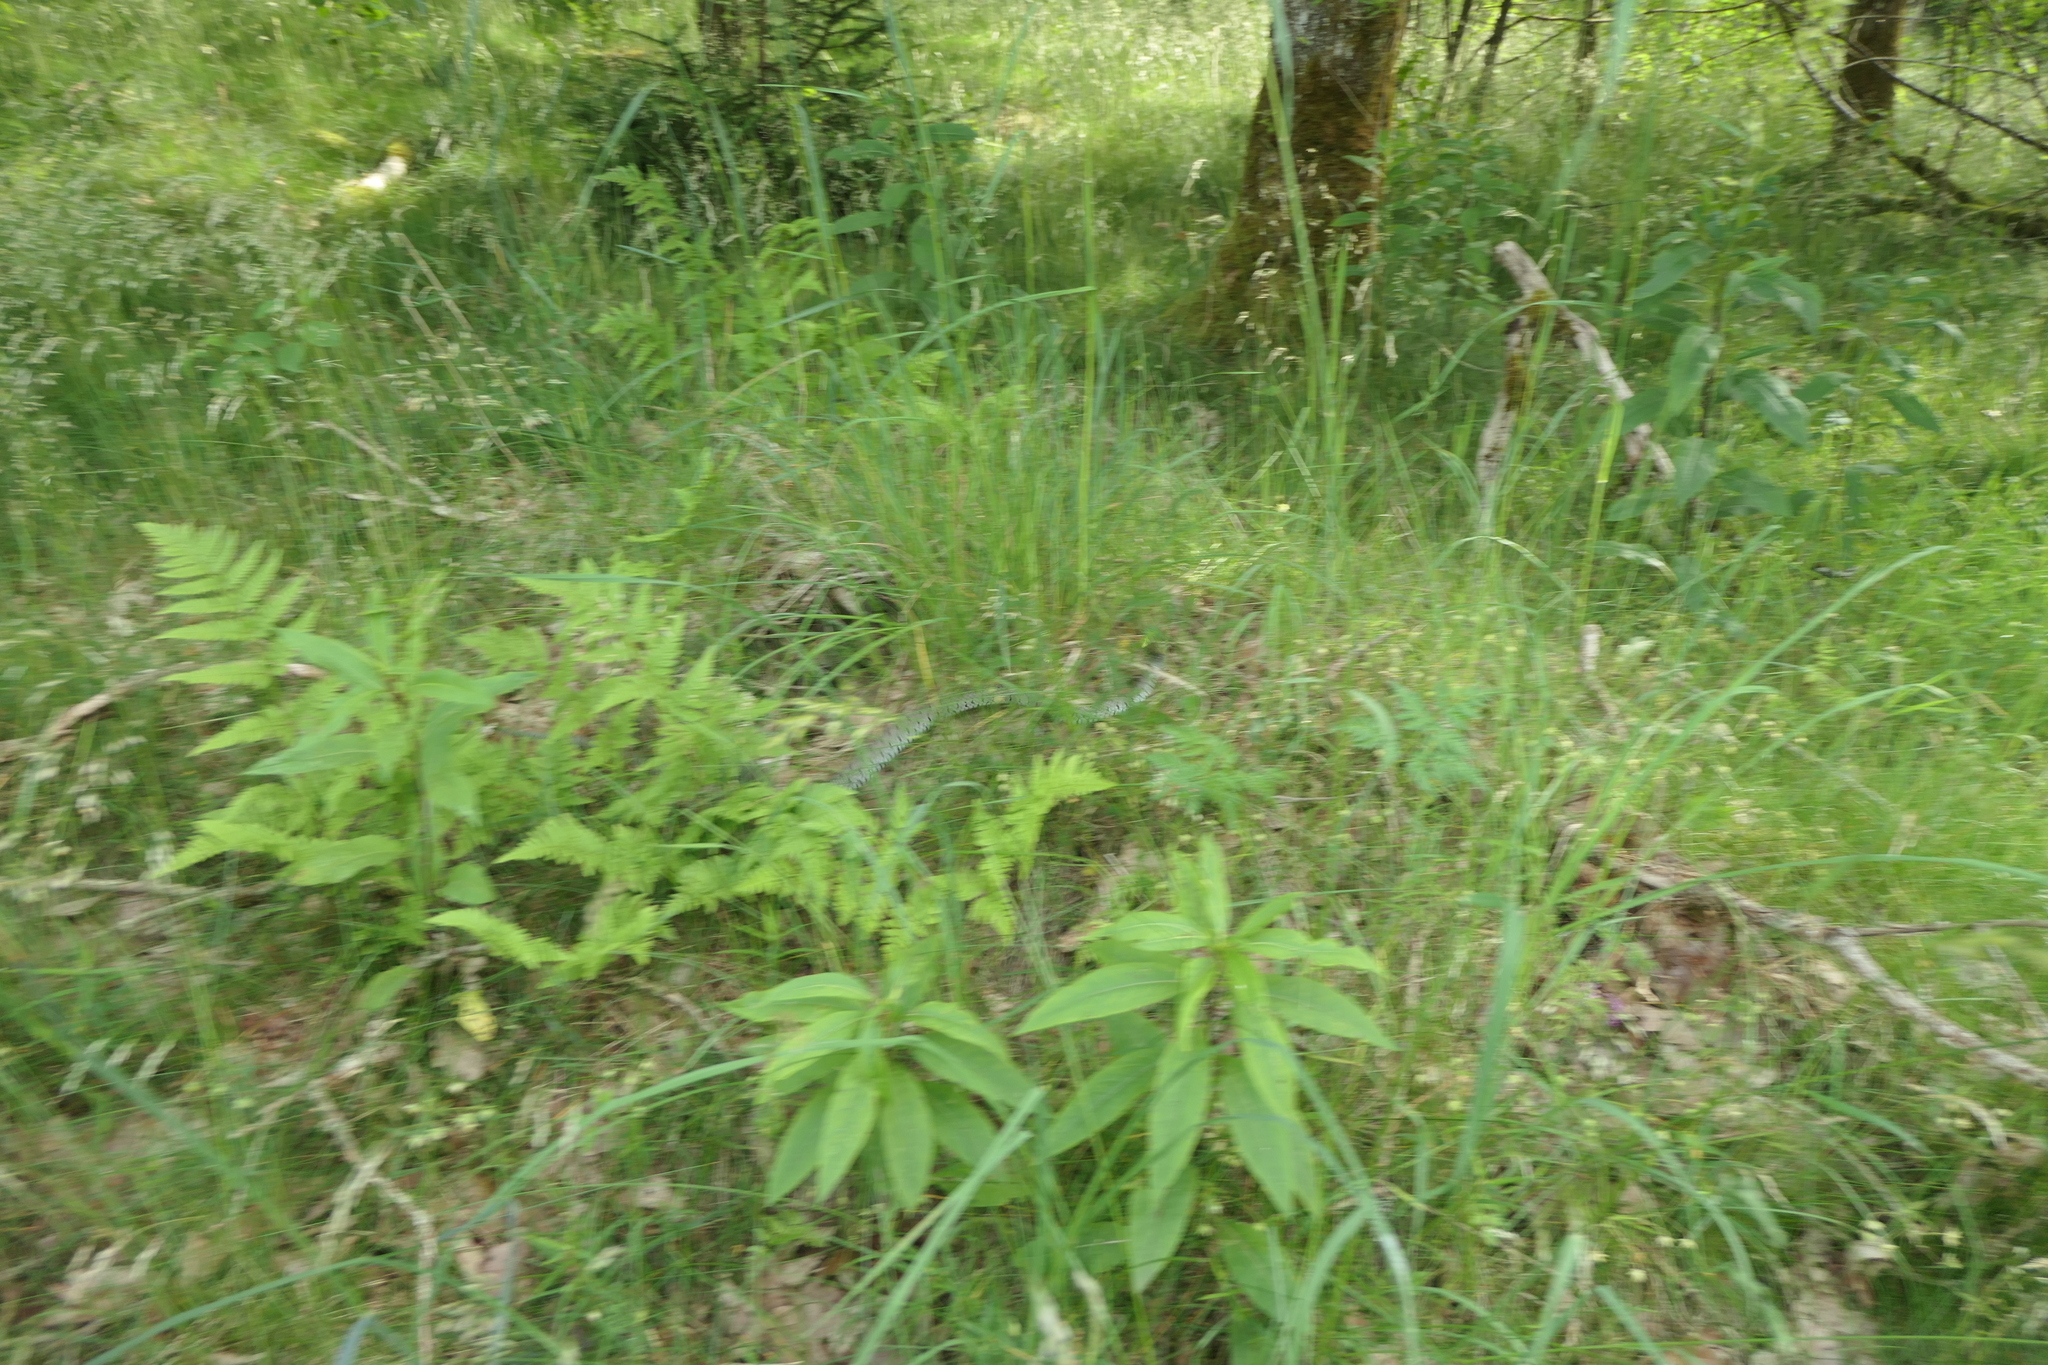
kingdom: Animalia
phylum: Chordata
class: Squamata
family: Colubridae
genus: Natrix
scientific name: Natrix helvetica
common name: Banded grass snake
